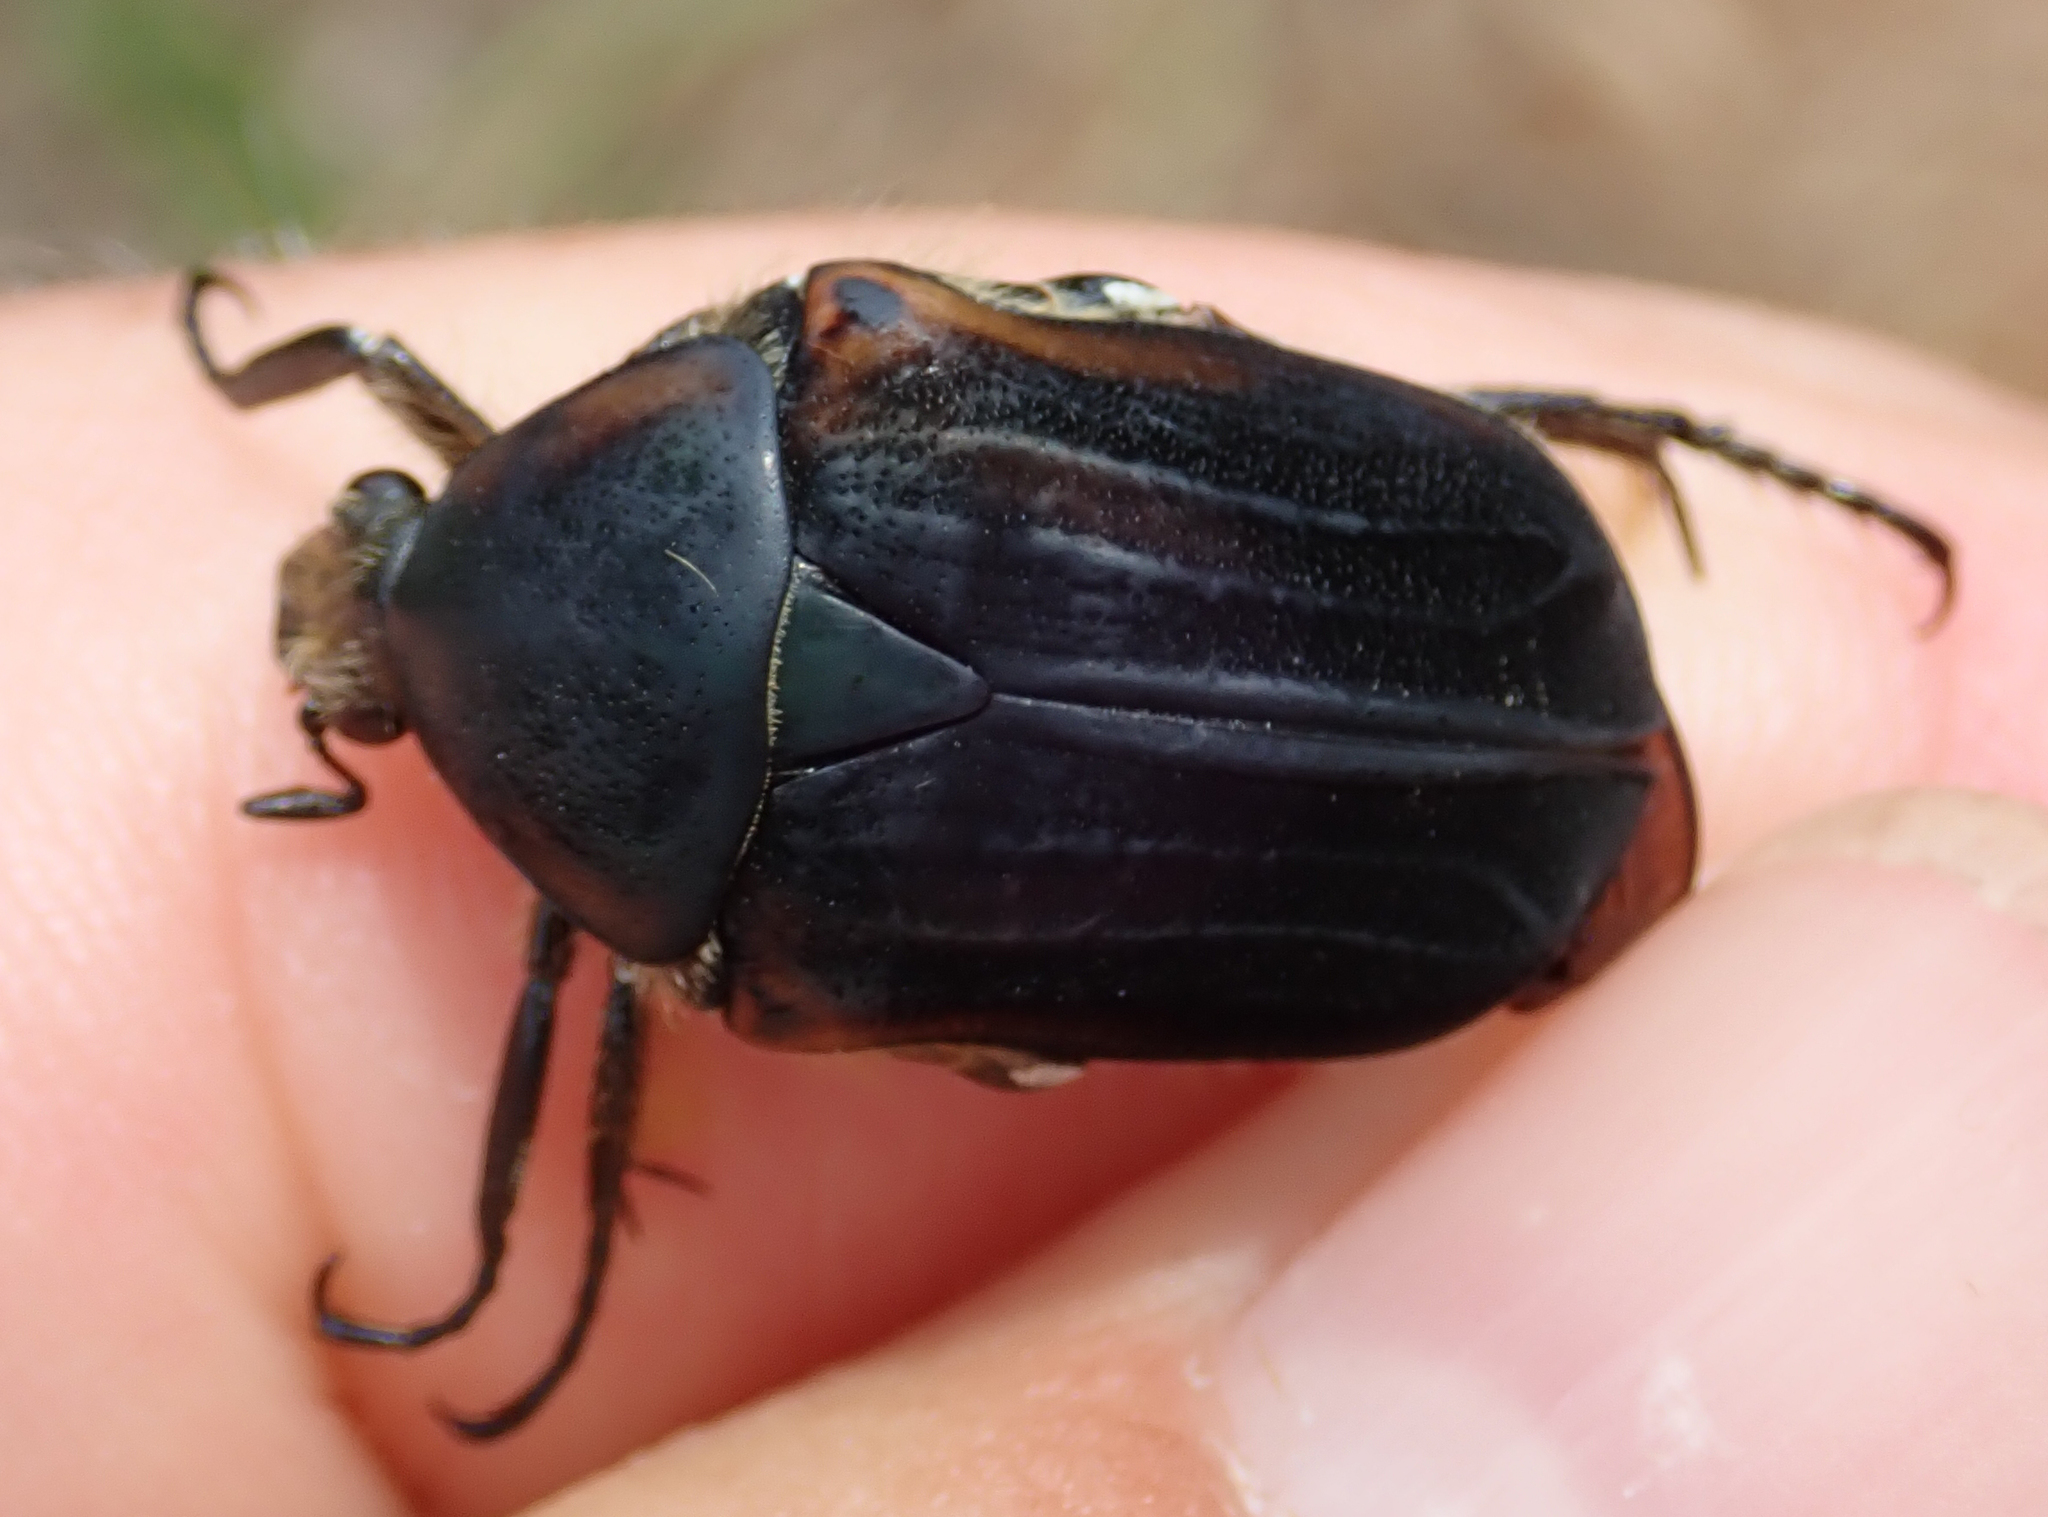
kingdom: Animalia
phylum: Arthropoda
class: Insecta
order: Coleoptera
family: Scarabaeidae
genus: Atrichiana
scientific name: Atrichiana placida
